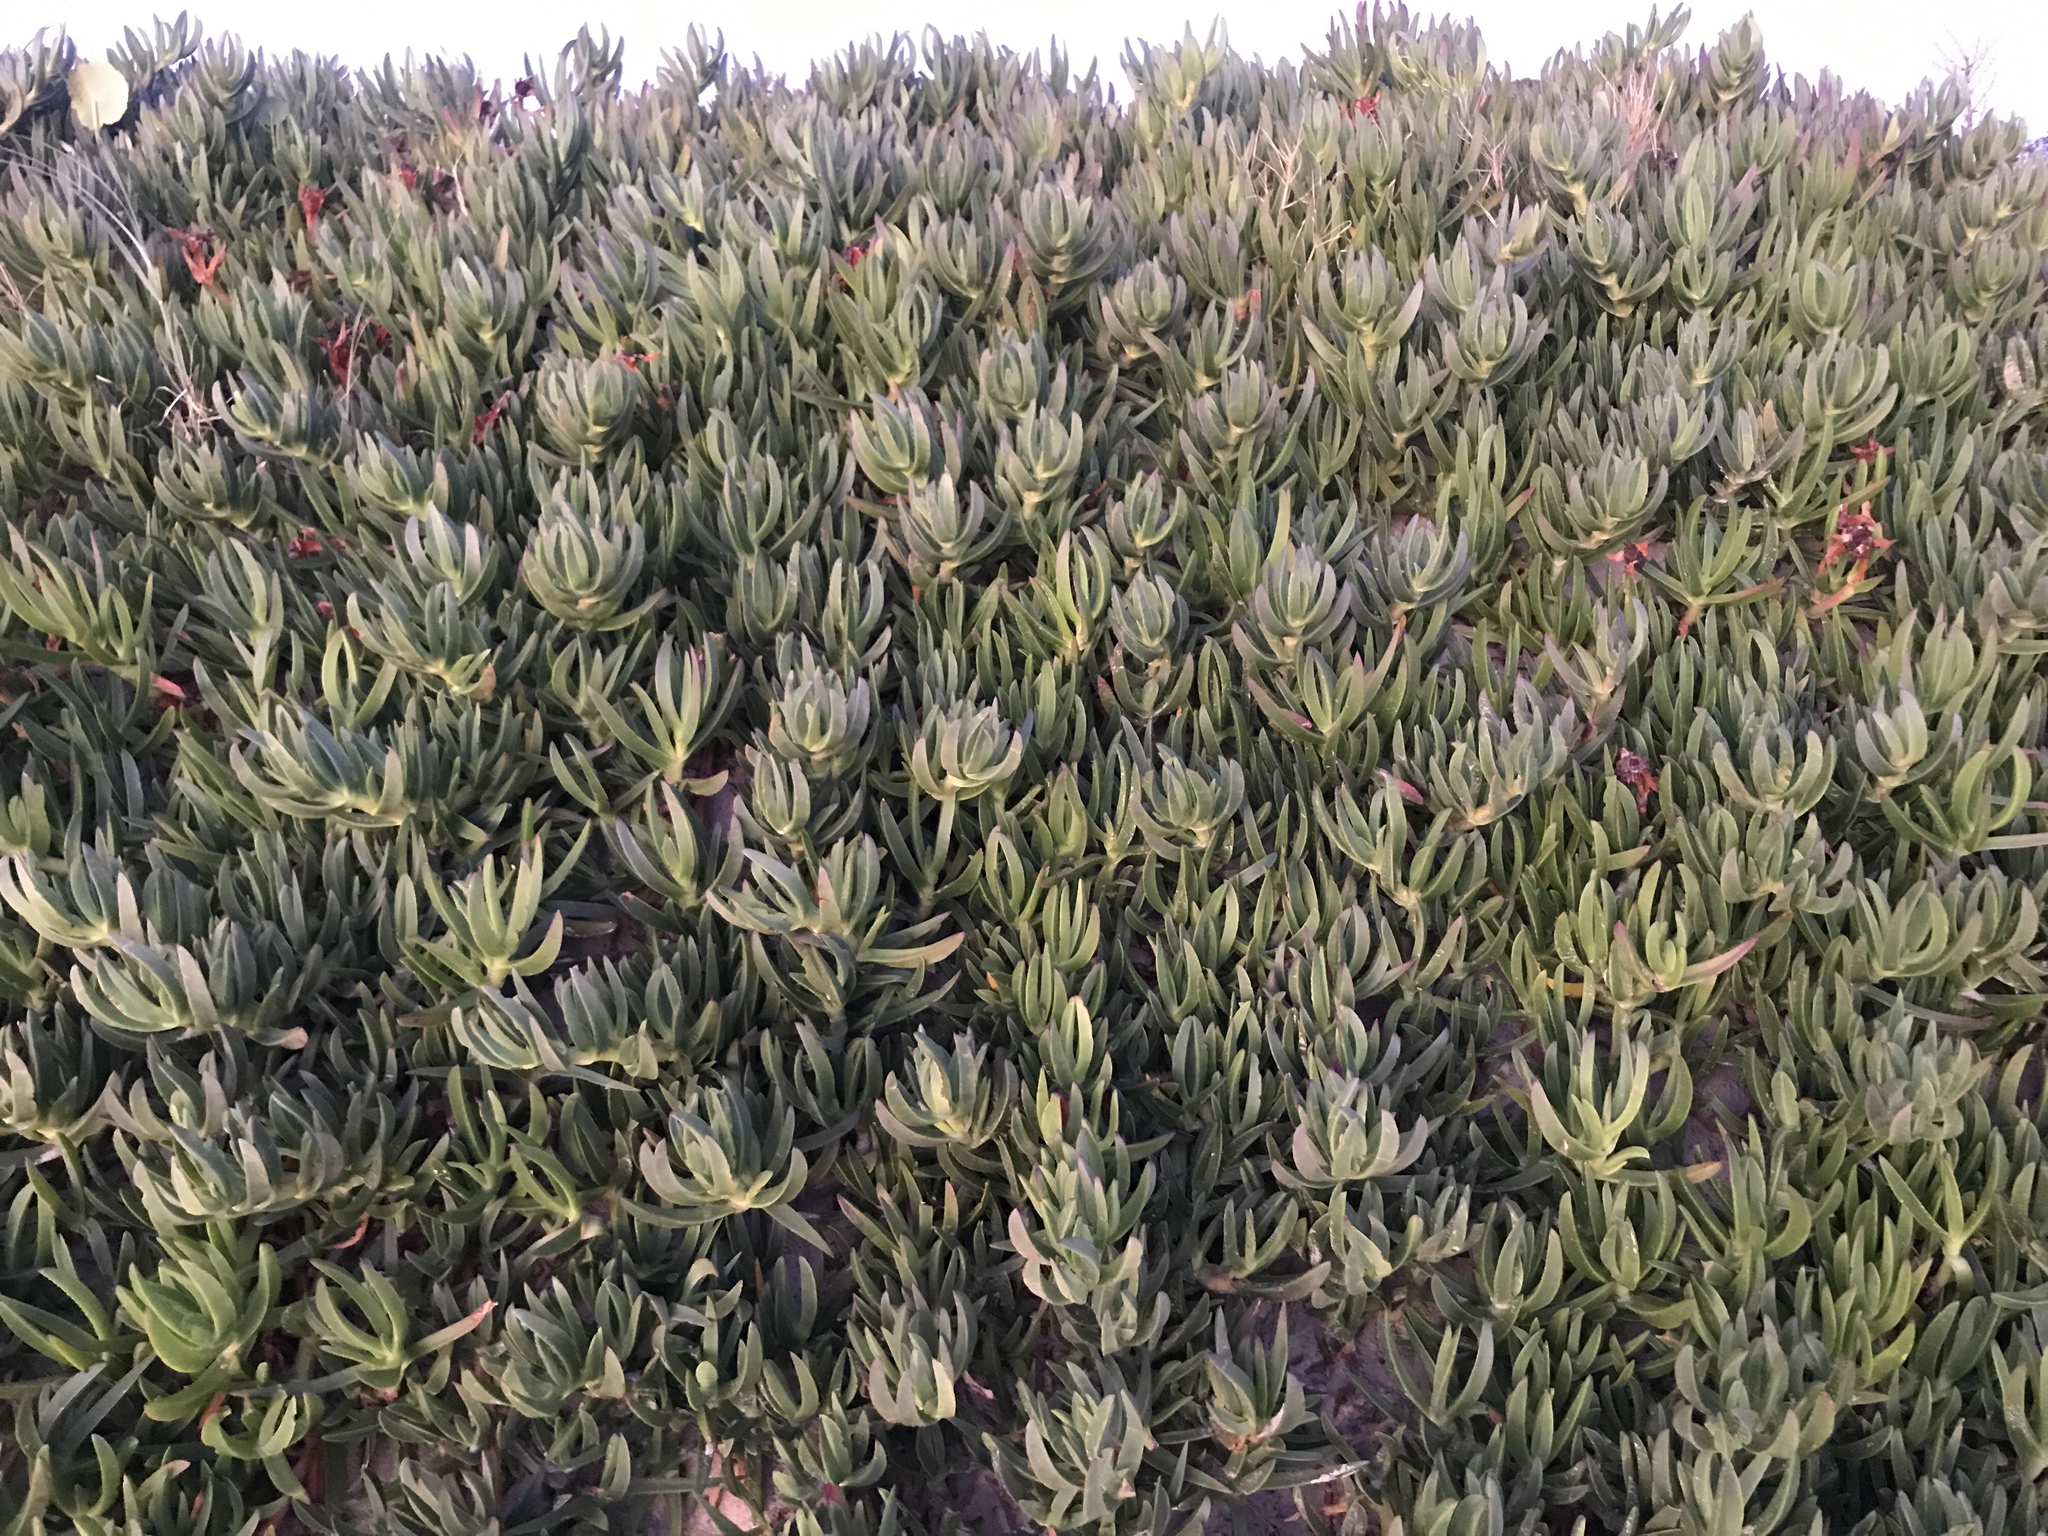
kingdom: Plantae
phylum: Tracheophyta
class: Magnoliopsida
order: Caryophyllales
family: Aizoaceae
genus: Carpobrotus
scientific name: Carpobrotus edulis
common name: Hottentot-fig
